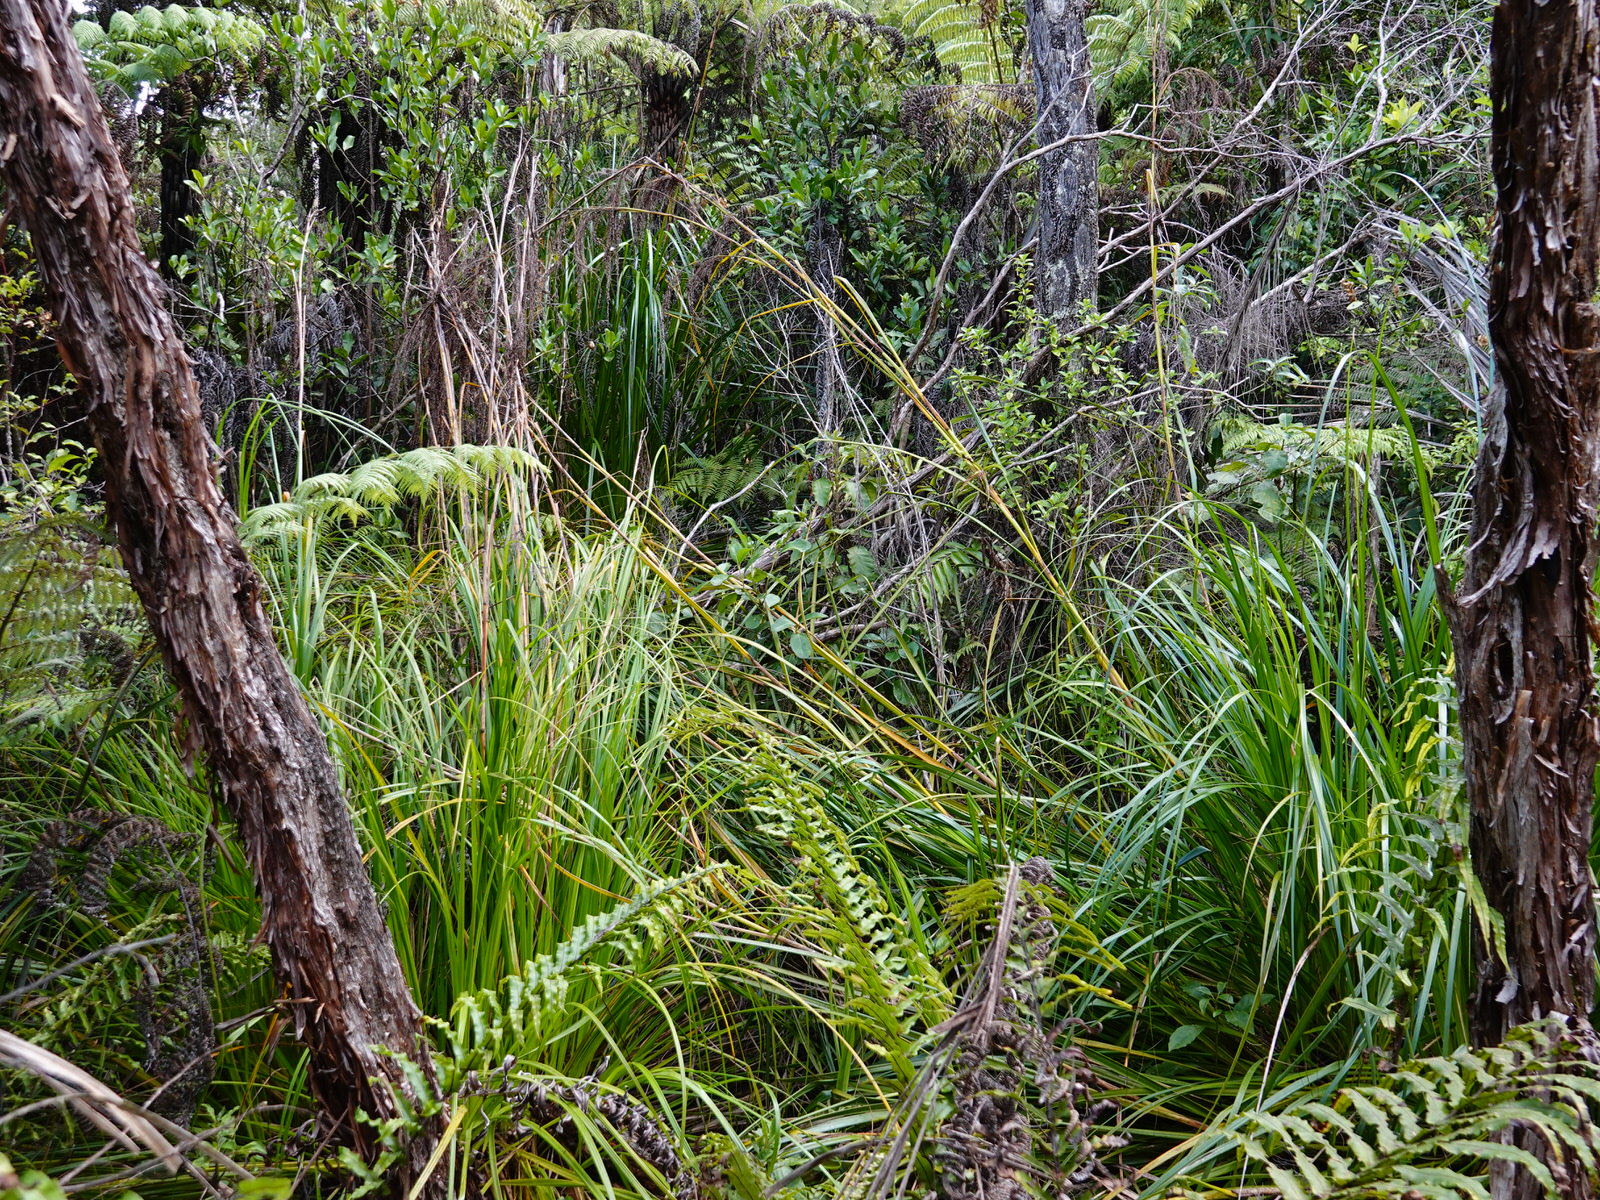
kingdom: Plantae
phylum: Tracheophyta
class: Liliopsida
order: Poales
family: Cyperaceae
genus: Gahnia
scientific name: Gahnia xanthocarpa
